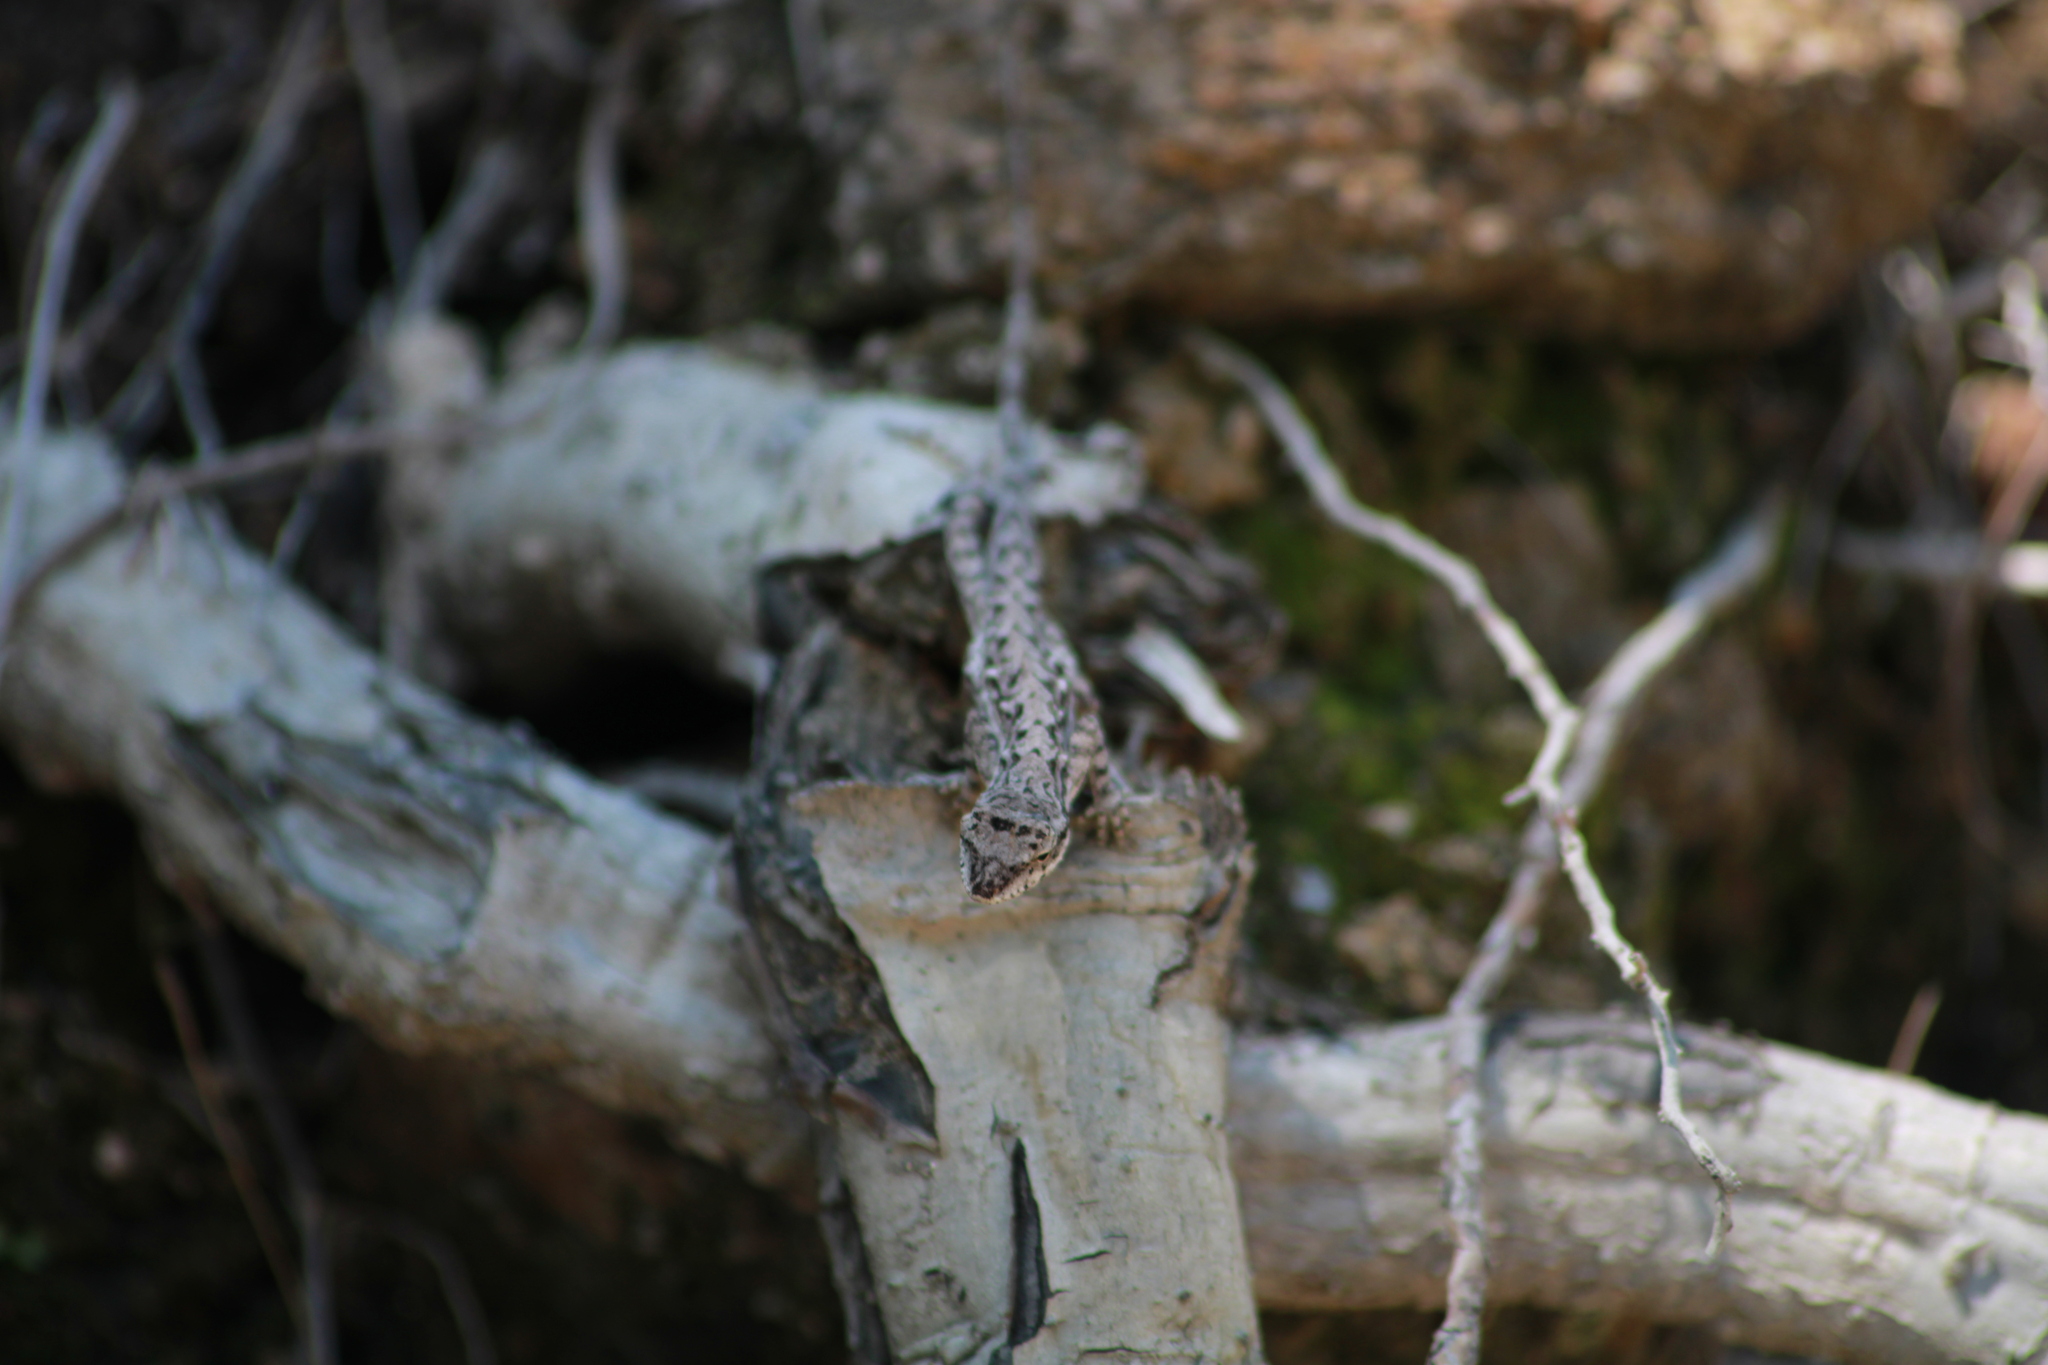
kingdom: Animalia
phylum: Chordata
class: Squamata
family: Dactyloidae
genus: Anolis
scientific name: Anolis nebulosus
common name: Clouded anole
